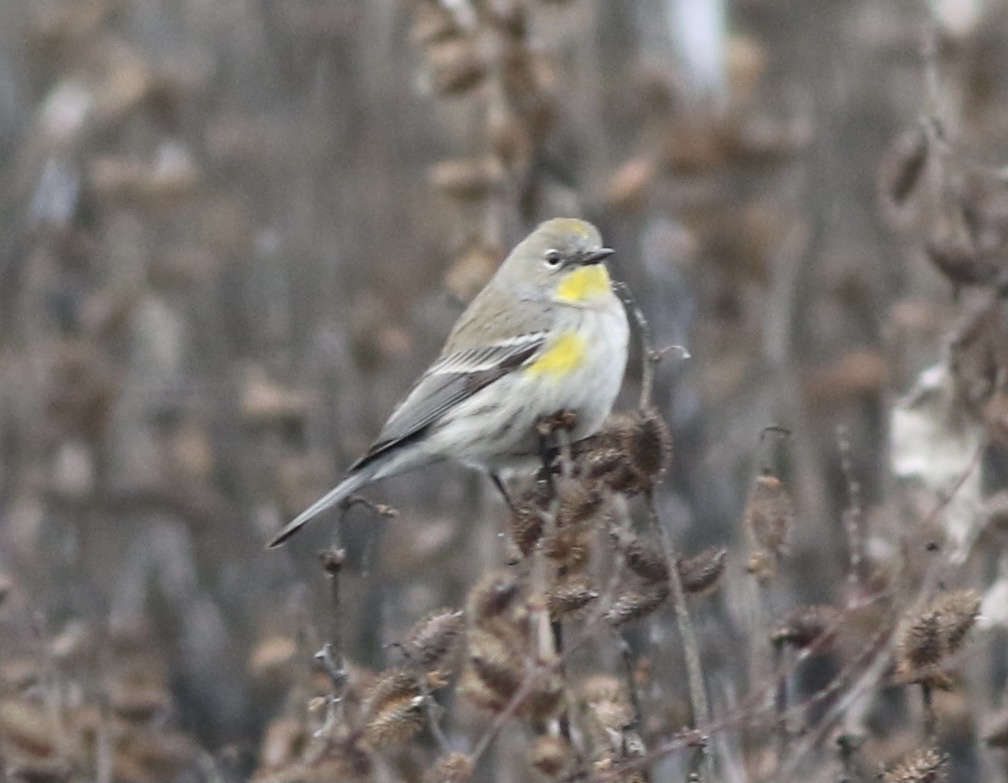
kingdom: Animalia
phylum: Chordata
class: Aves
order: Passeriformes
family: Parulidae
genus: Setophaga
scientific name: Setophaga coronata
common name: Myrtle warbler
